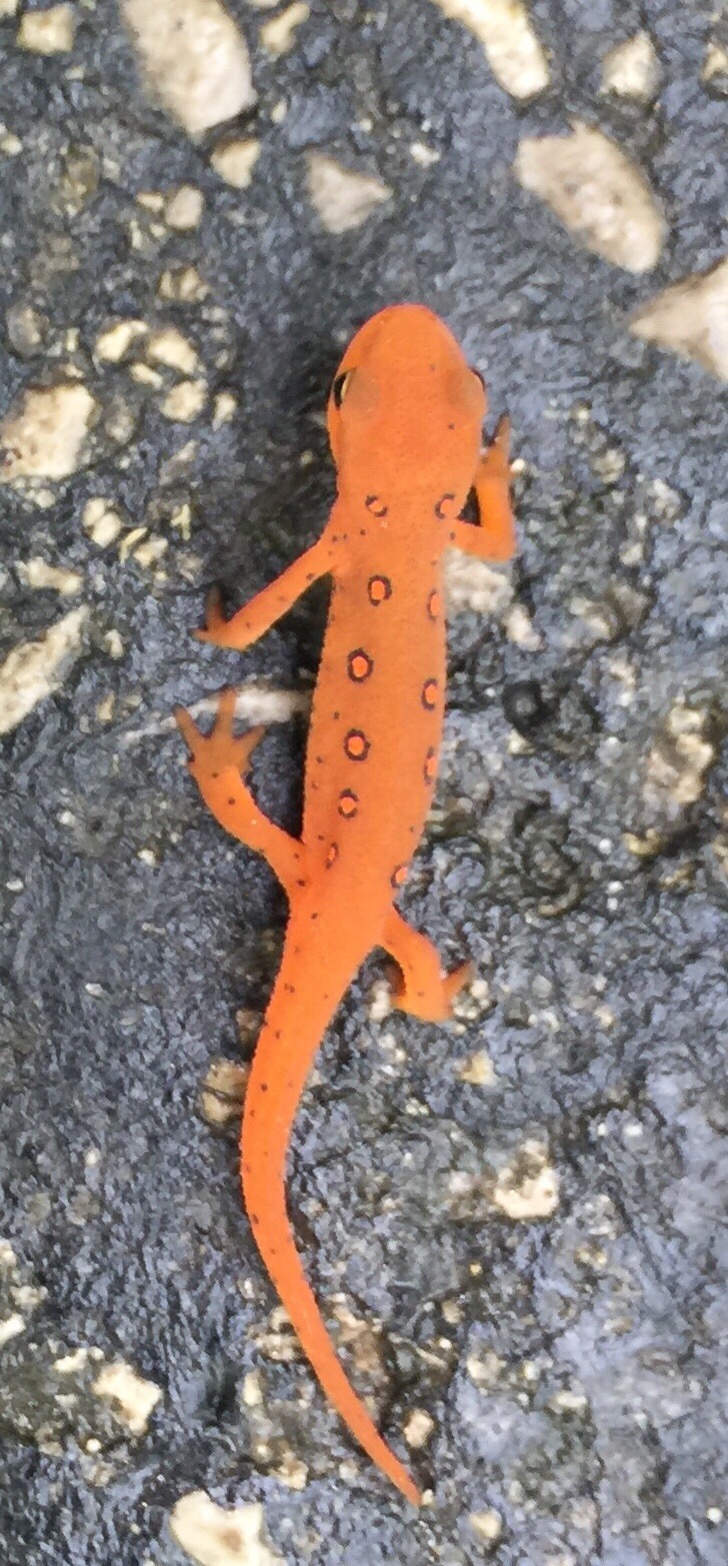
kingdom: Animalia
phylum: Chordata
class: Amphibia
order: Caudata
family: Salamandridae
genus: Notophthalmus
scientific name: Notophthalmus viridescens
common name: Eastern newt
